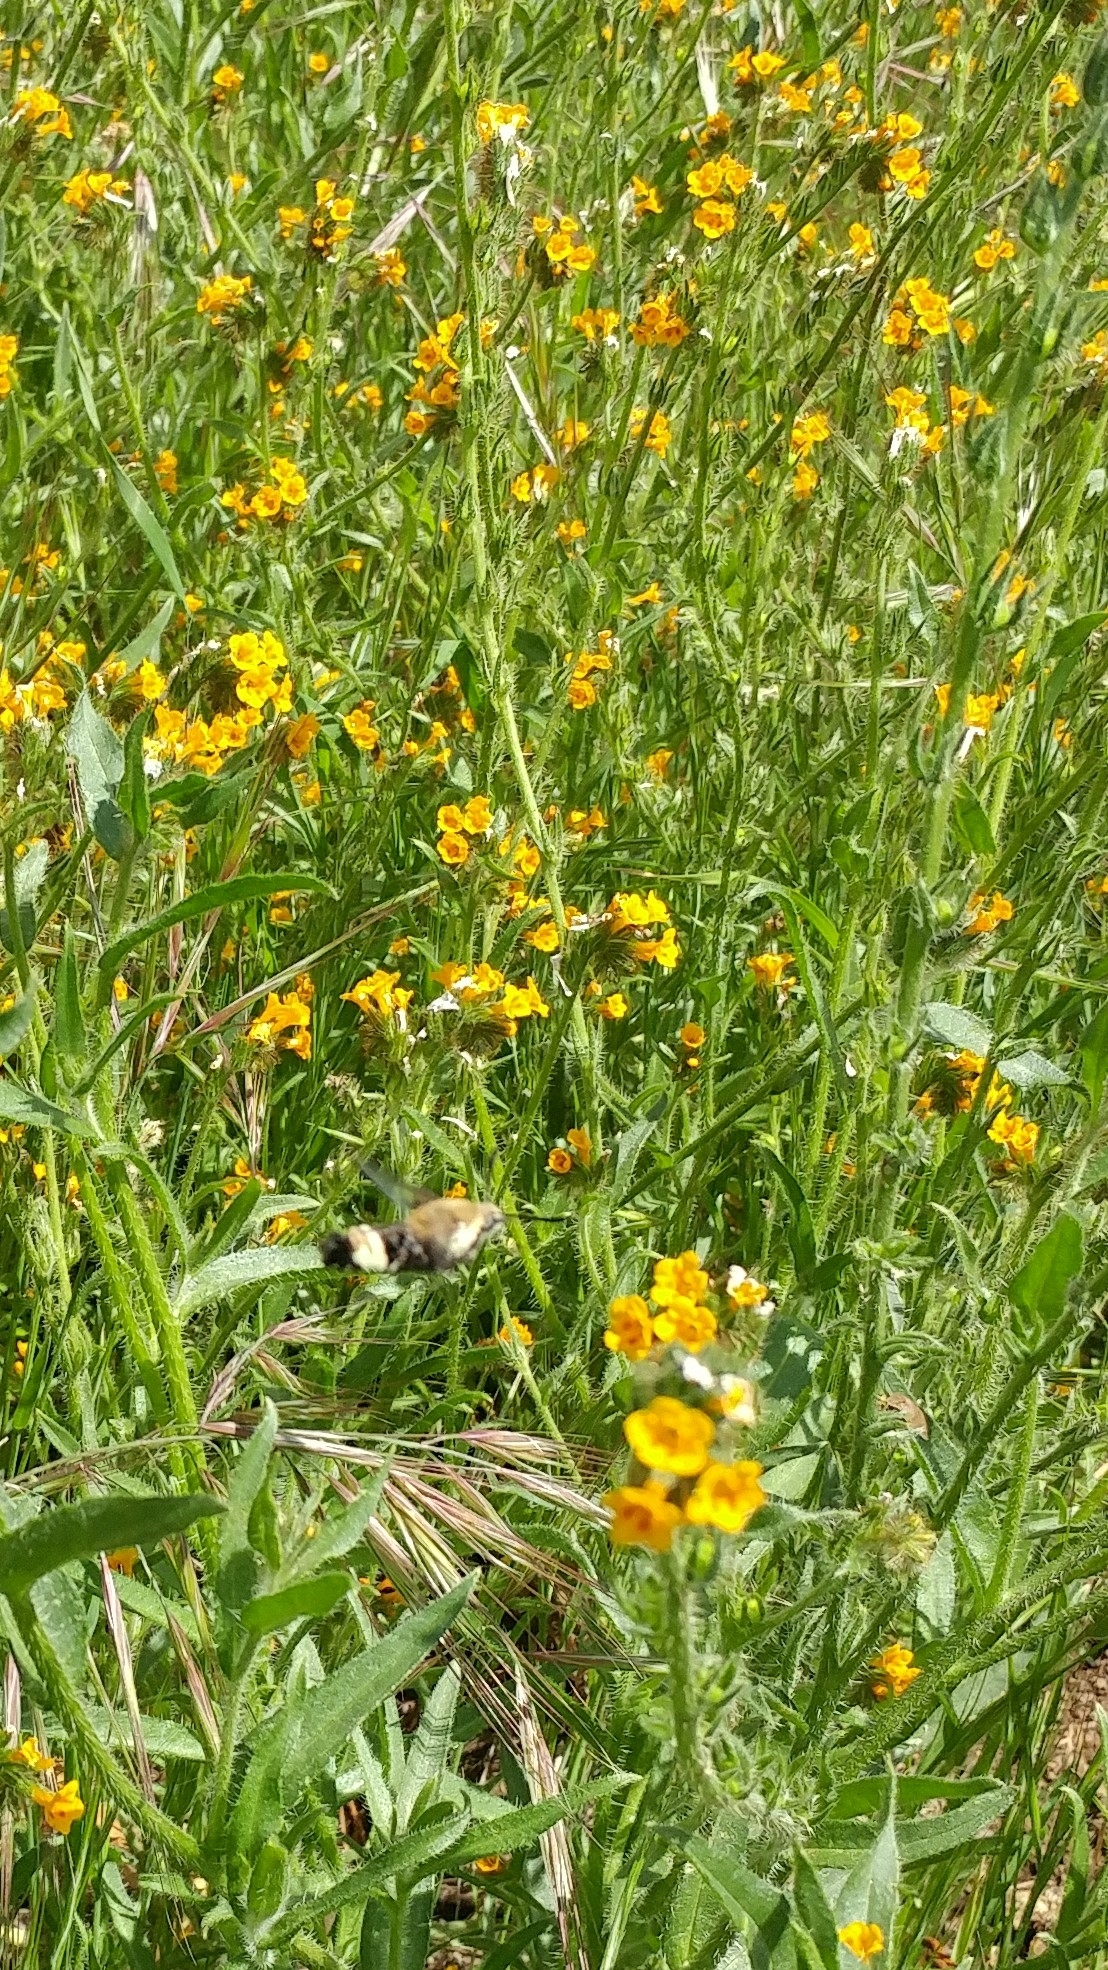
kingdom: Animalia
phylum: Arthropoda
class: Insecta
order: Lepidoptera
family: Sphingidae
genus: Hemaris
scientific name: Hemaris thetis
